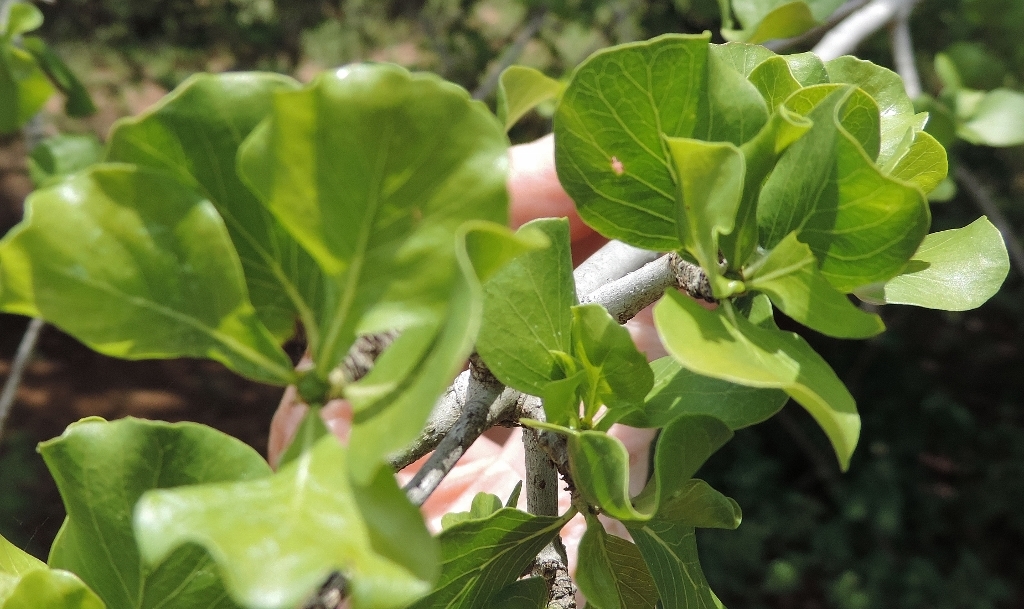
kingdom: Plantae
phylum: Tracheophyta
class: Magnoliopsida
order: Gentianales
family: Rubiaceae
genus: Gardenia
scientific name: Gardenia volkensii
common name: Common gardenia
